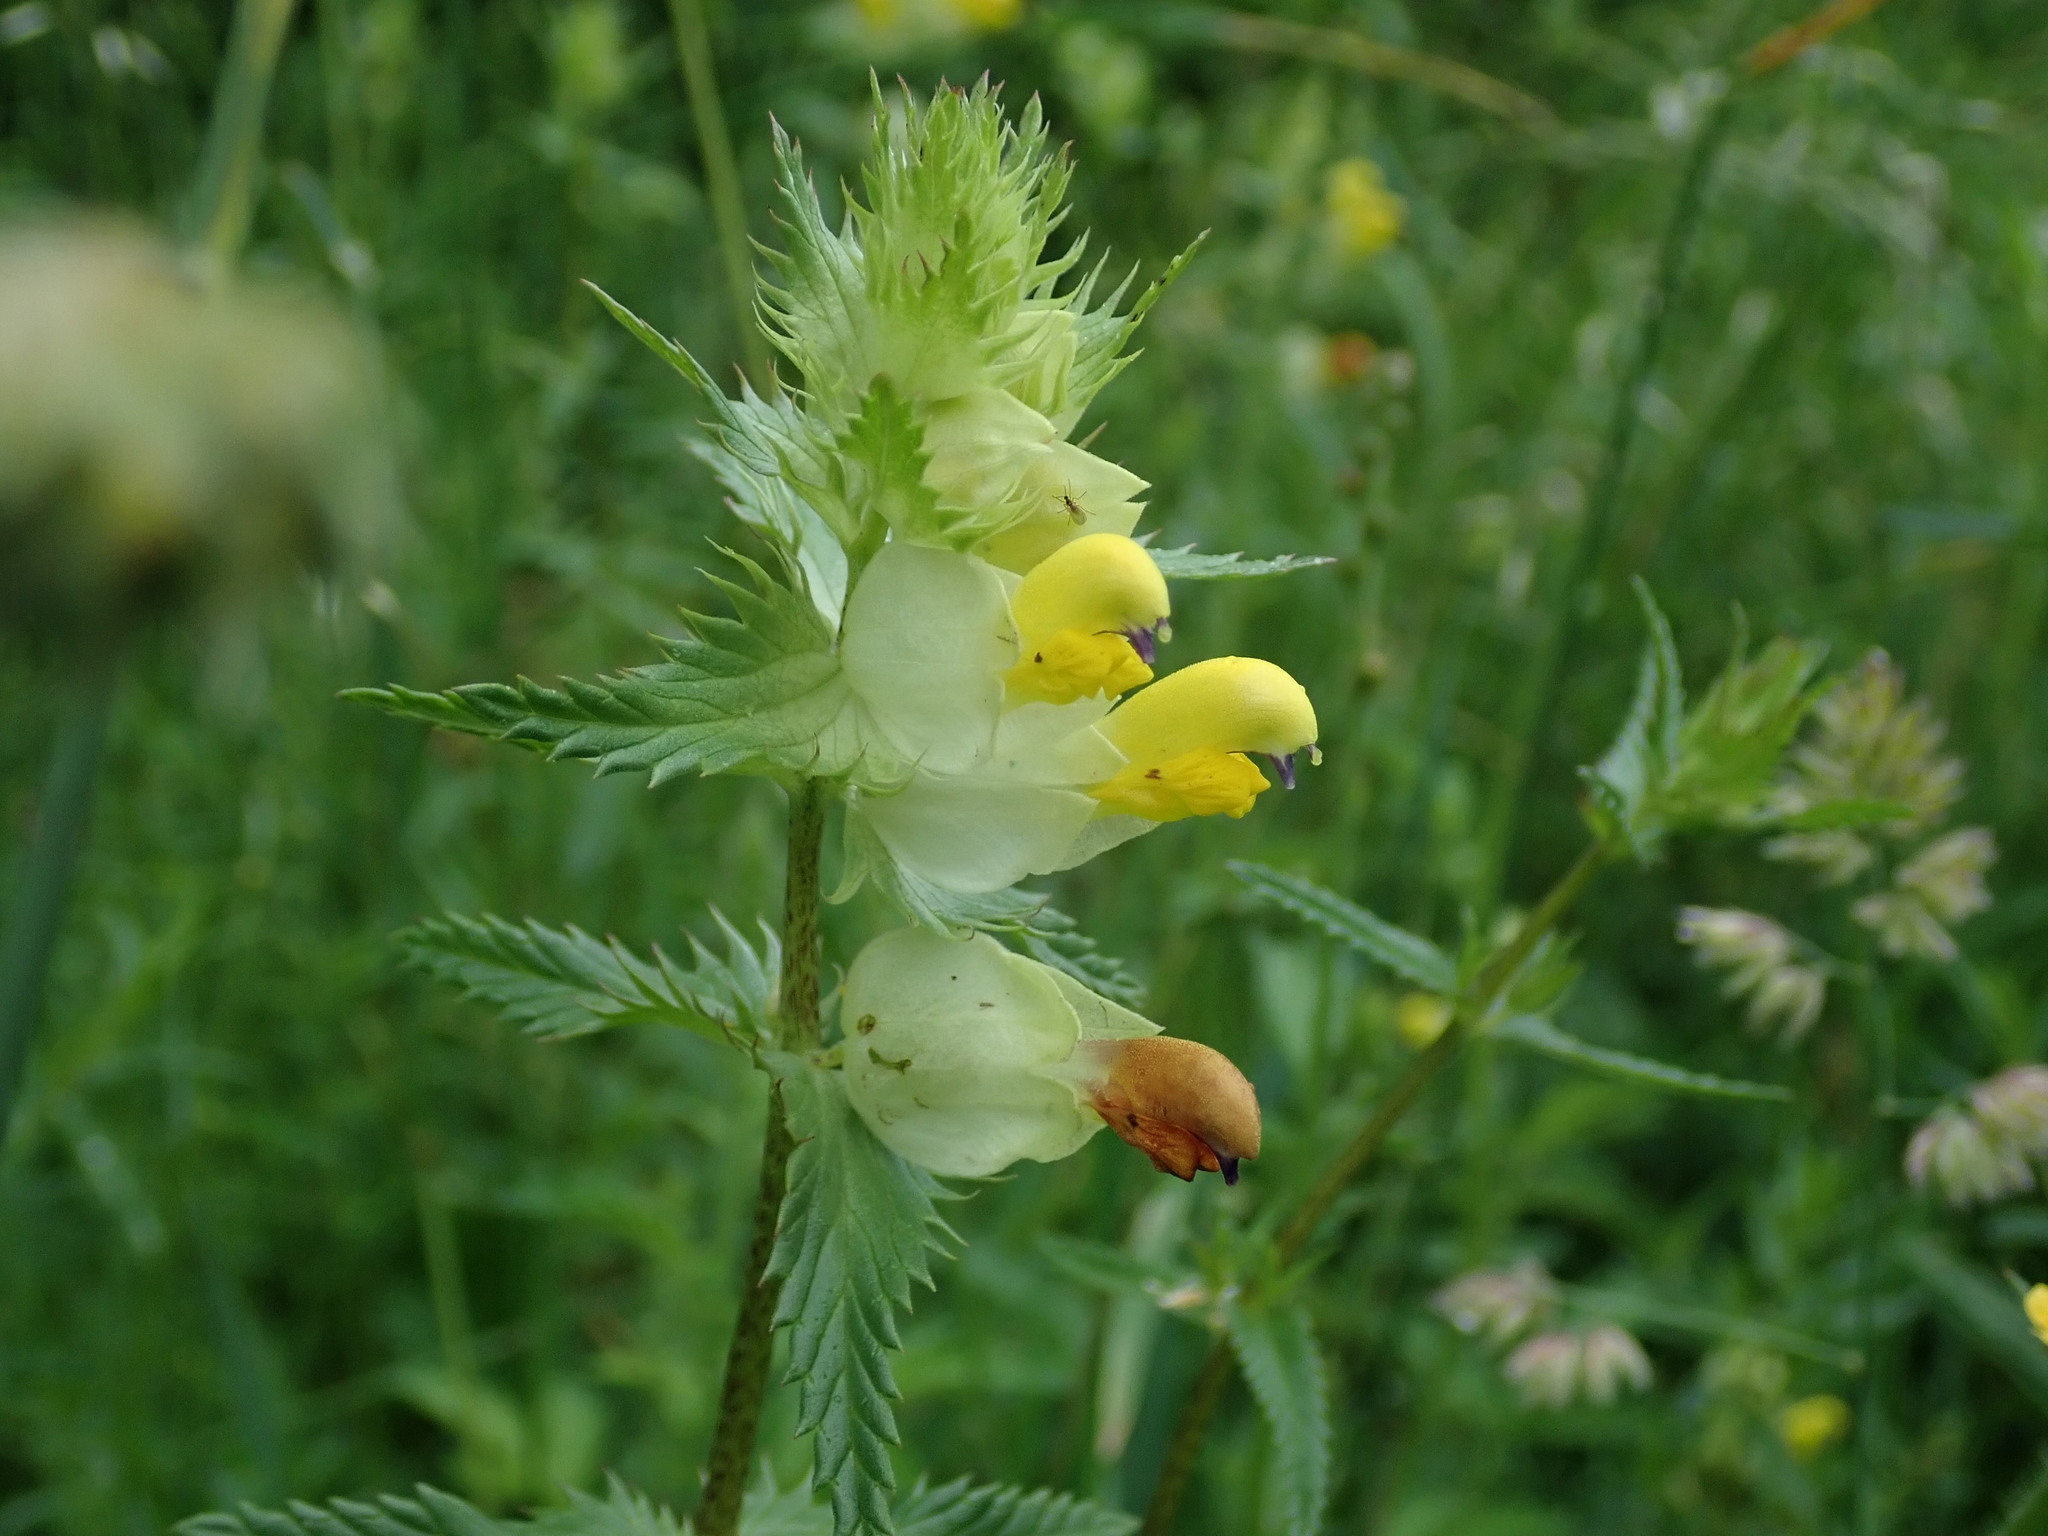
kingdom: Plantae
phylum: Tracheophyta
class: Magnoliopsida
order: Lamiales
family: Orobanchaceae
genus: Rhinanthus
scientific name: Rhinanthus minor
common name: Yellow-rattle
